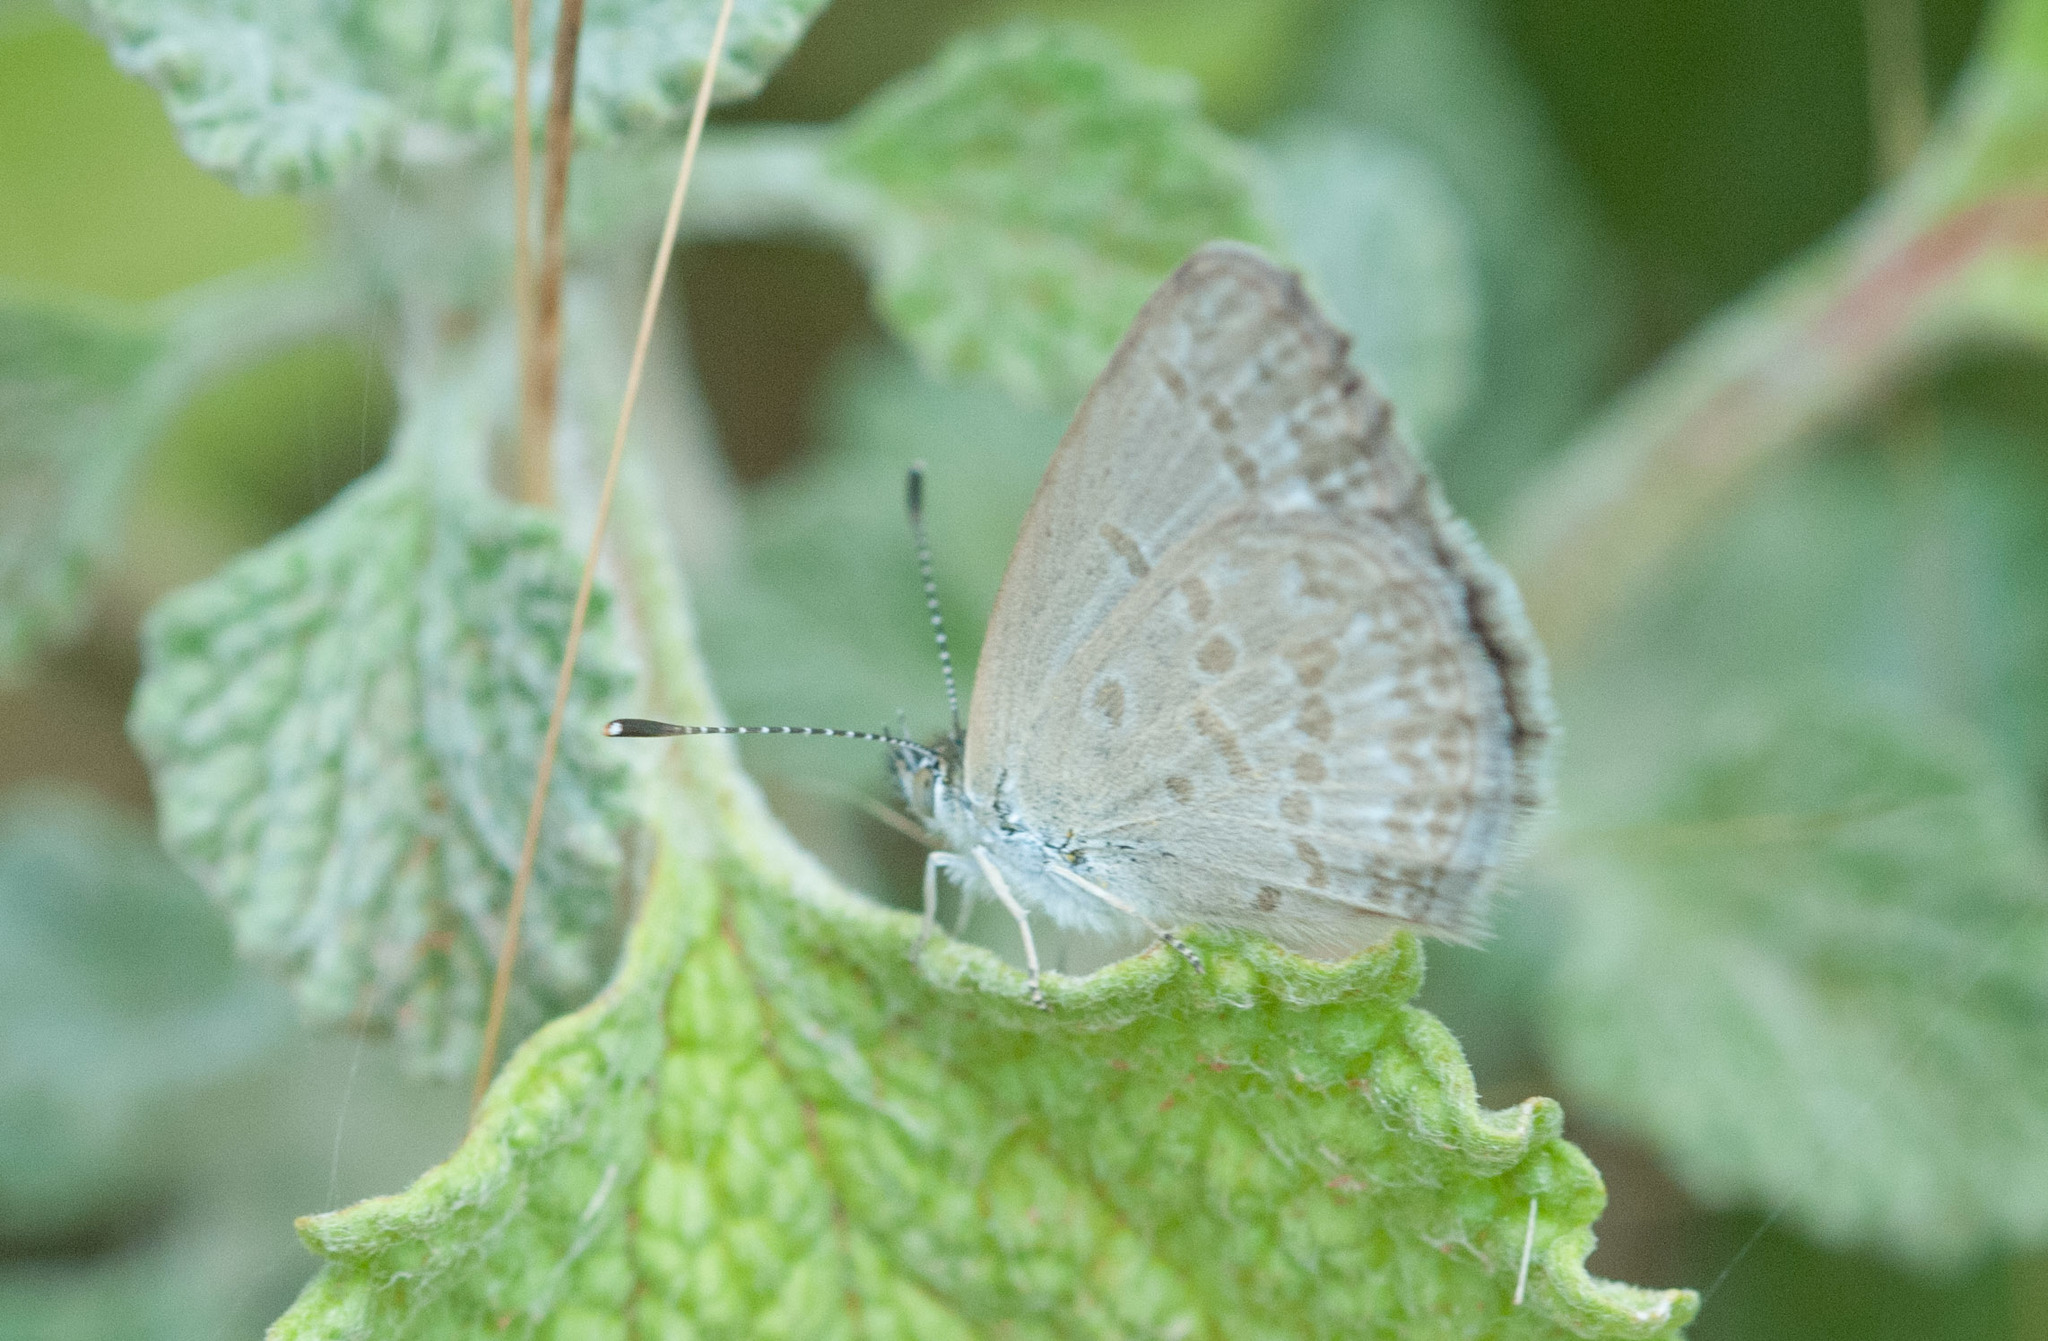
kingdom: Animalia
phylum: Arthropoda
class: Insecta
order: Lepidoptera
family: Lycaenidae
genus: Zizina
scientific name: Zizina labradus
